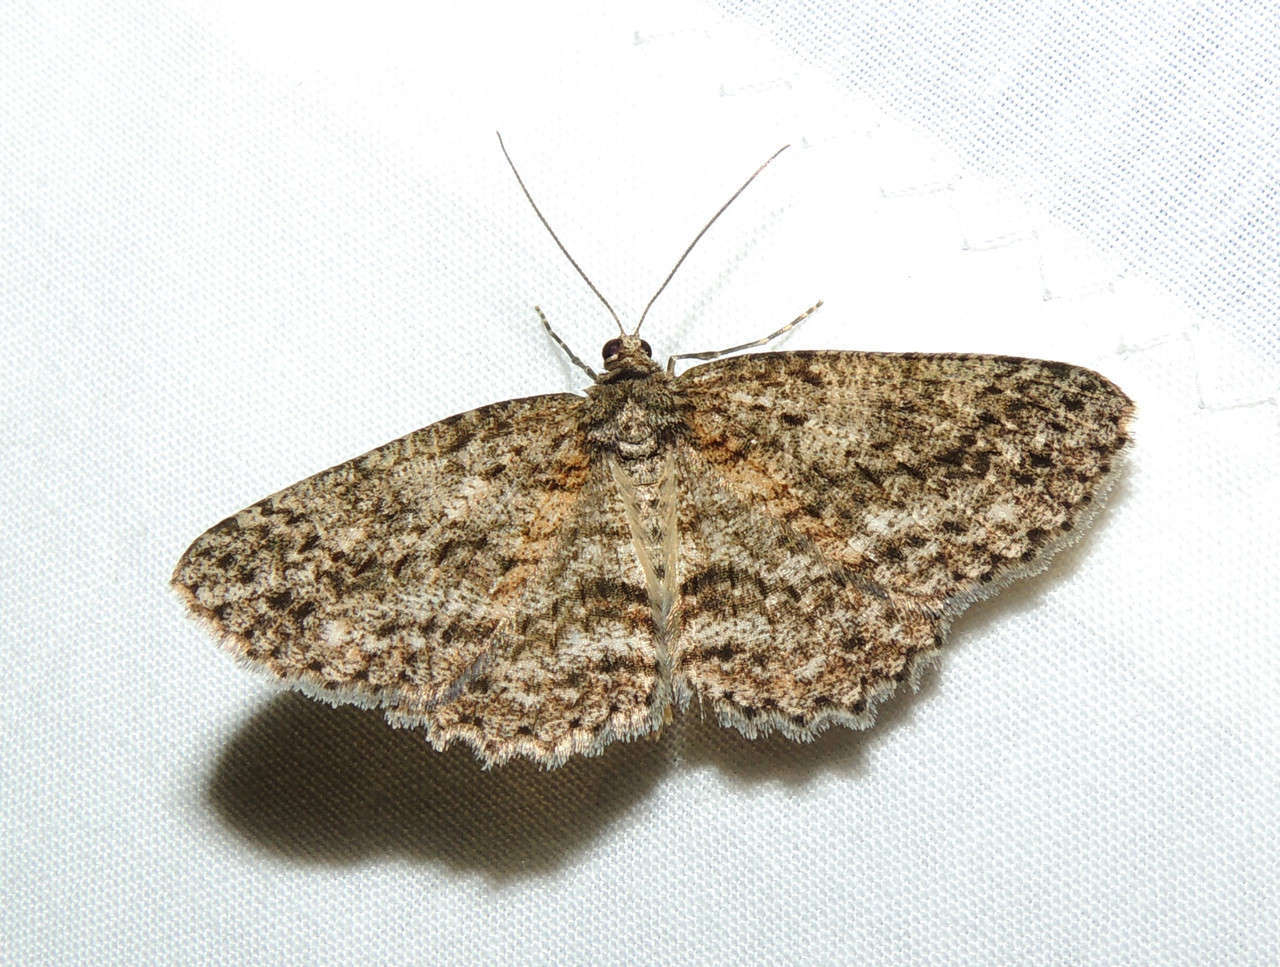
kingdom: Animalia
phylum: Arthropoda
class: Insecta
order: Lepidoptera
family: Geometridae
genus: Ectropis
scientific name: Ectropis fractaria
